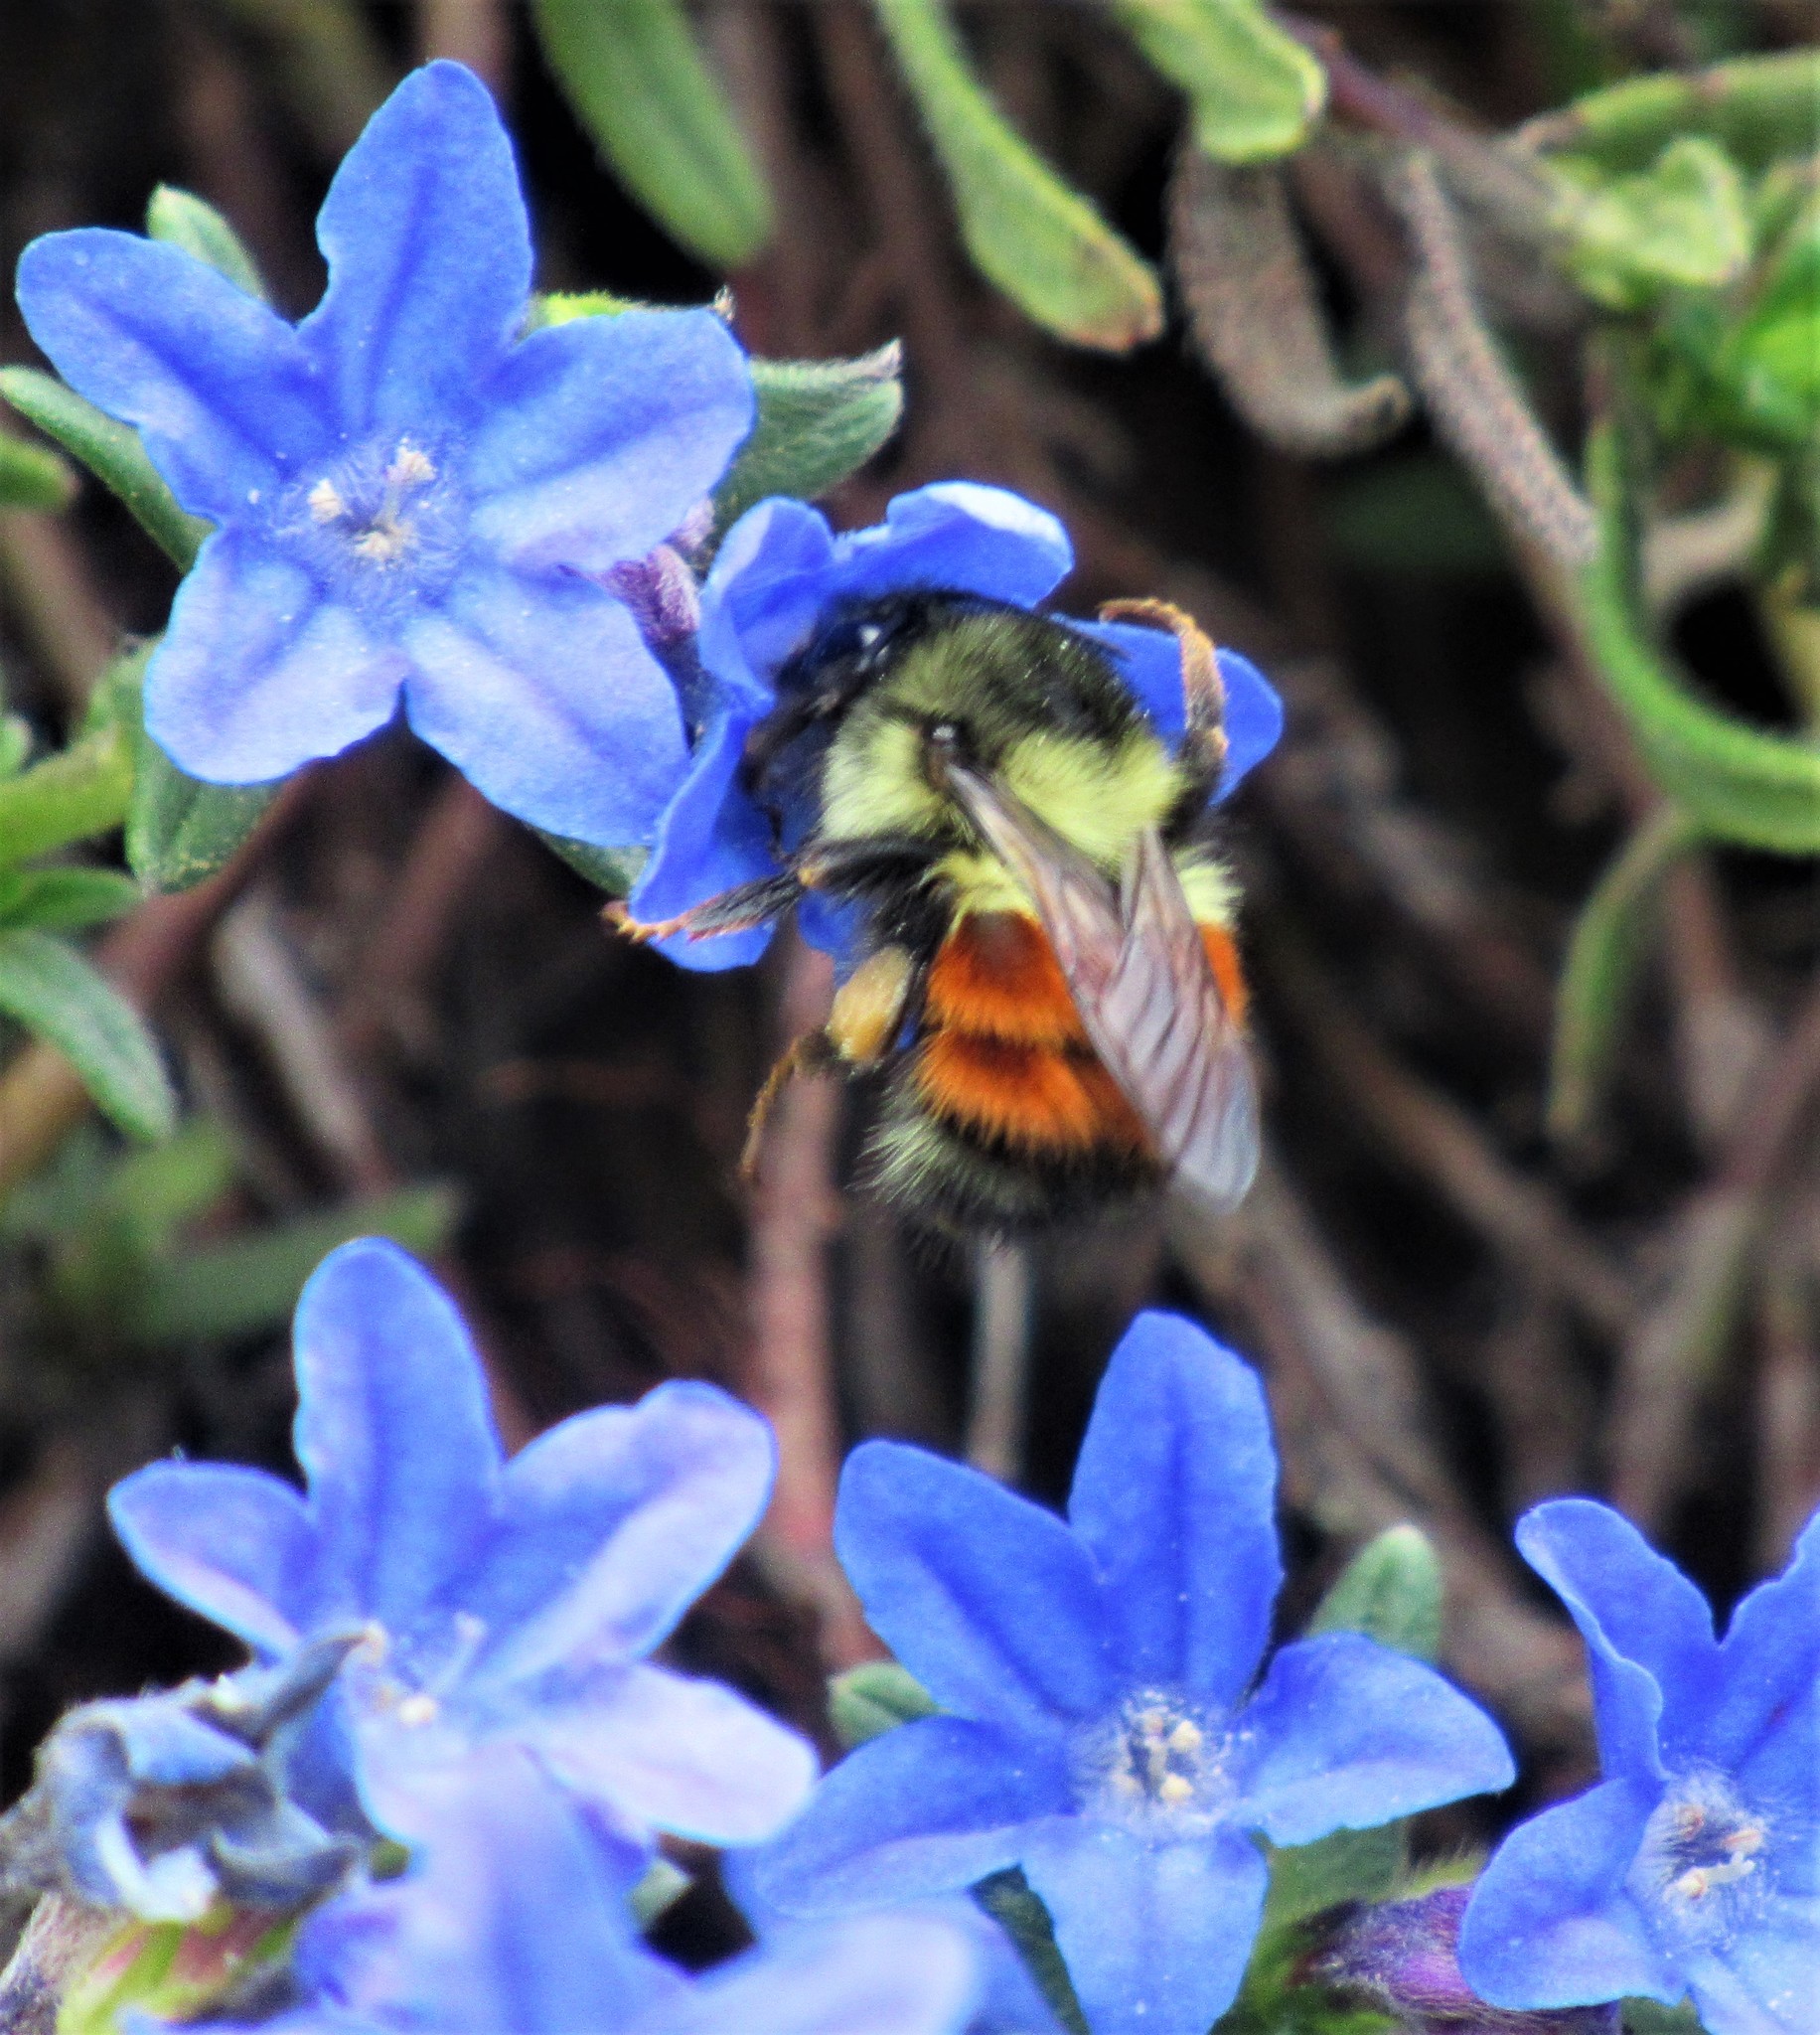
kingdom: Animalia
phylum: Arthropoda
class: Insecta
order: Hymenoptera
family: Apidae
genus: Bombus
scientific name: Bombus melanopygus
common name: Black tail bumble bee
